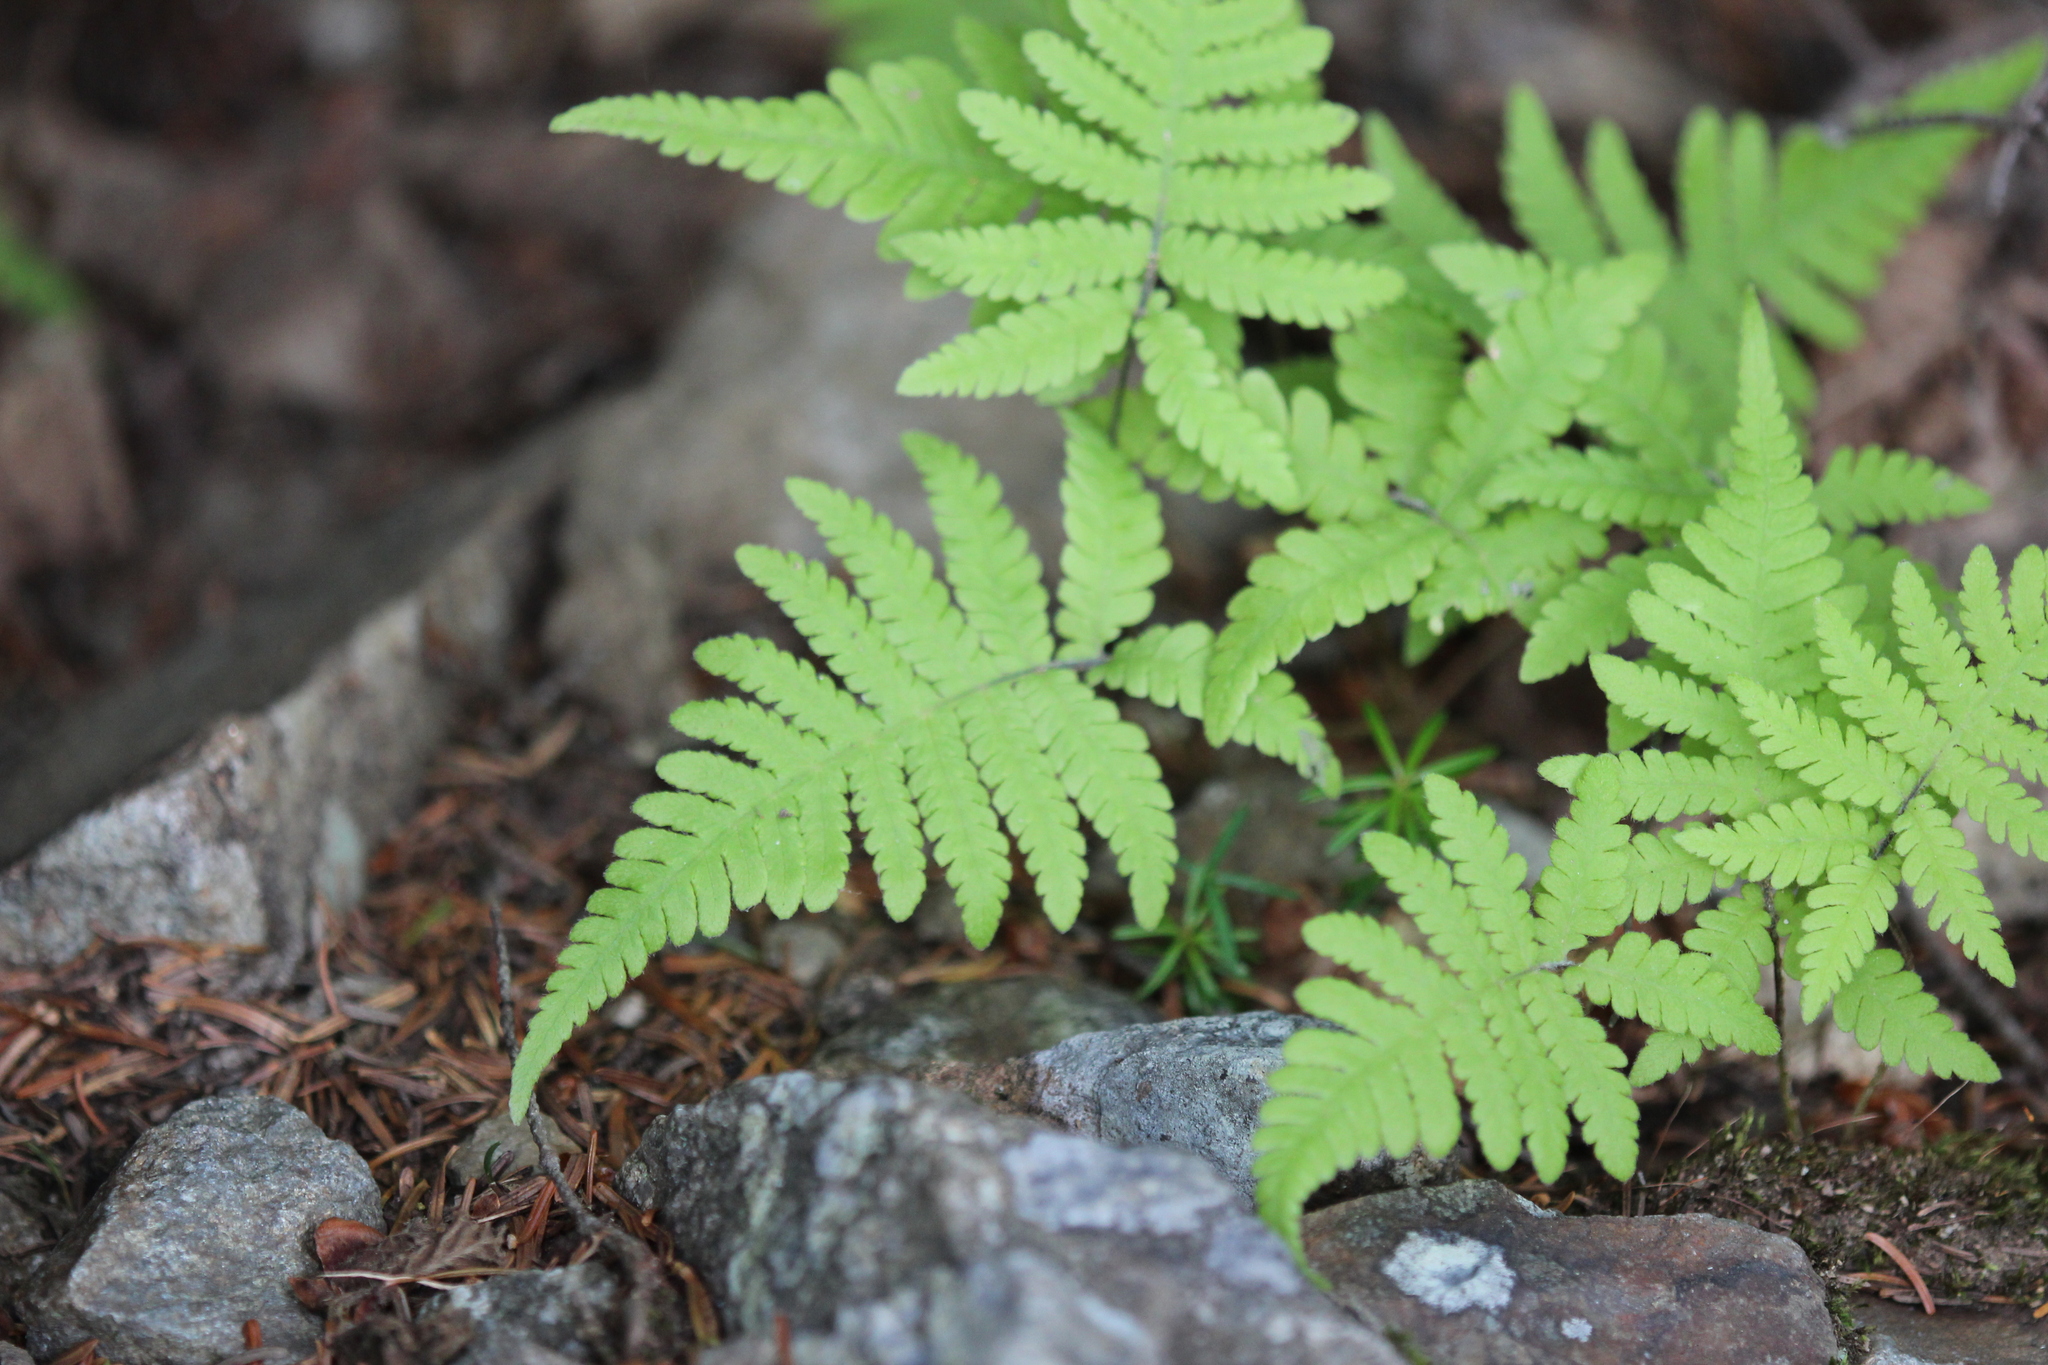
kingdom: Plantae
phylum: Tracheophyta
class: Polypodiopsida
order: Polypodiales
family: Thelypteridaceae
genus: Phegopteris
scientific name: Phegopteris connectilis
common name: Beech fern
